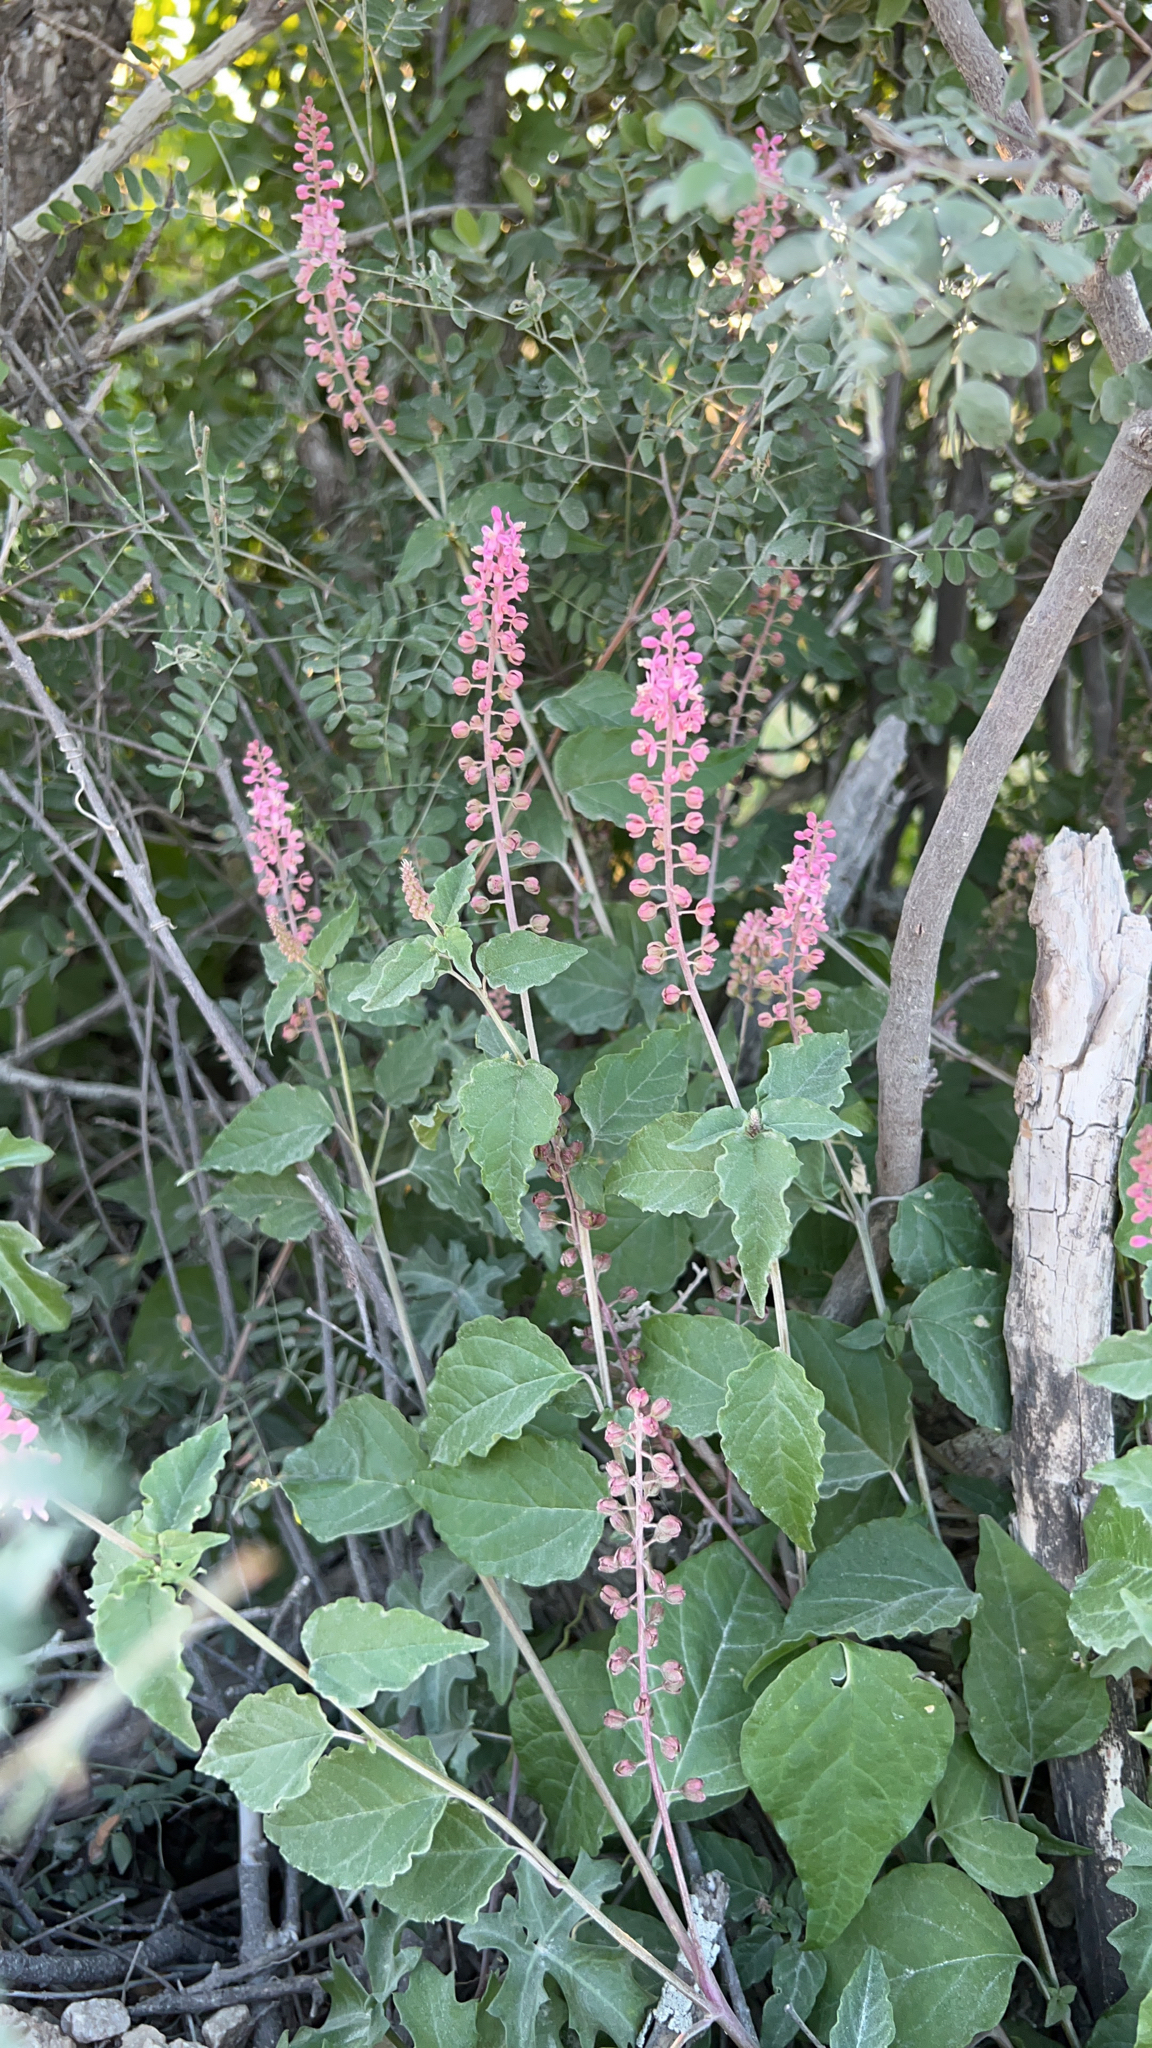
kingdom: Plantae
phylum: Tracheophyta
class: Magnoliopsida
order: Caryophyllales
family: Phytolaccaceae
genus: Rivina
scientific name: Rivina humilis
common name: Rougeplant
